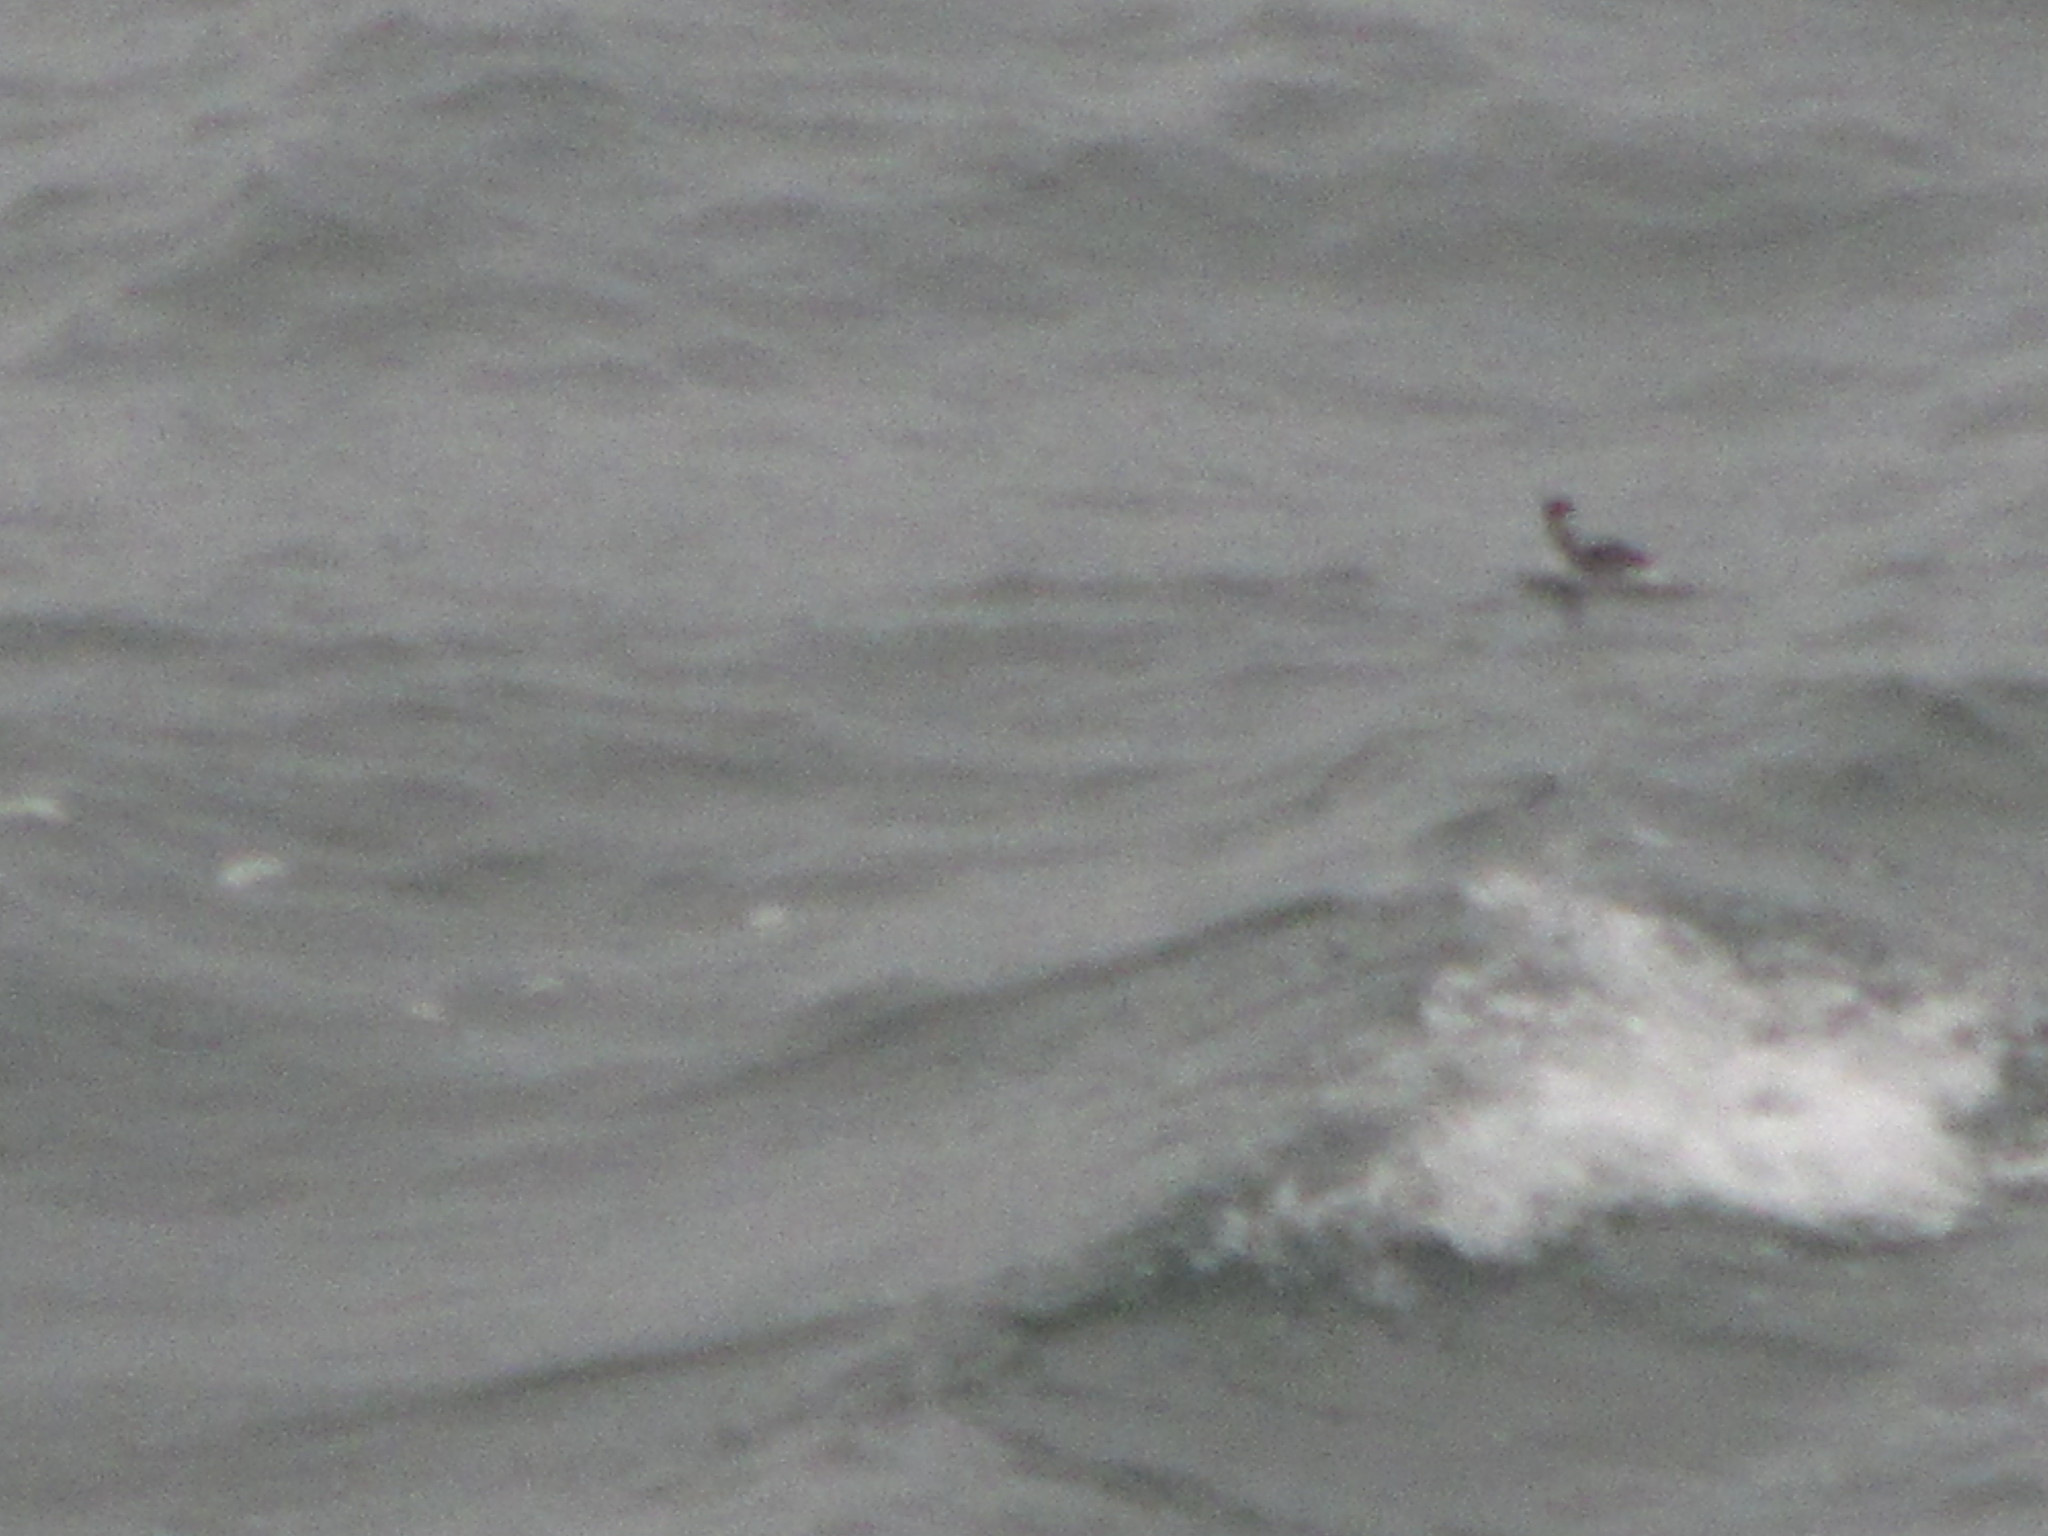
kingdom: Animalia
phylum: Chordata
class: Aves
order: Podicipediformes
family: Podicipedidae
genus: Podiceps
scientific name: Podiceps auritus
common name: Horned grebe
